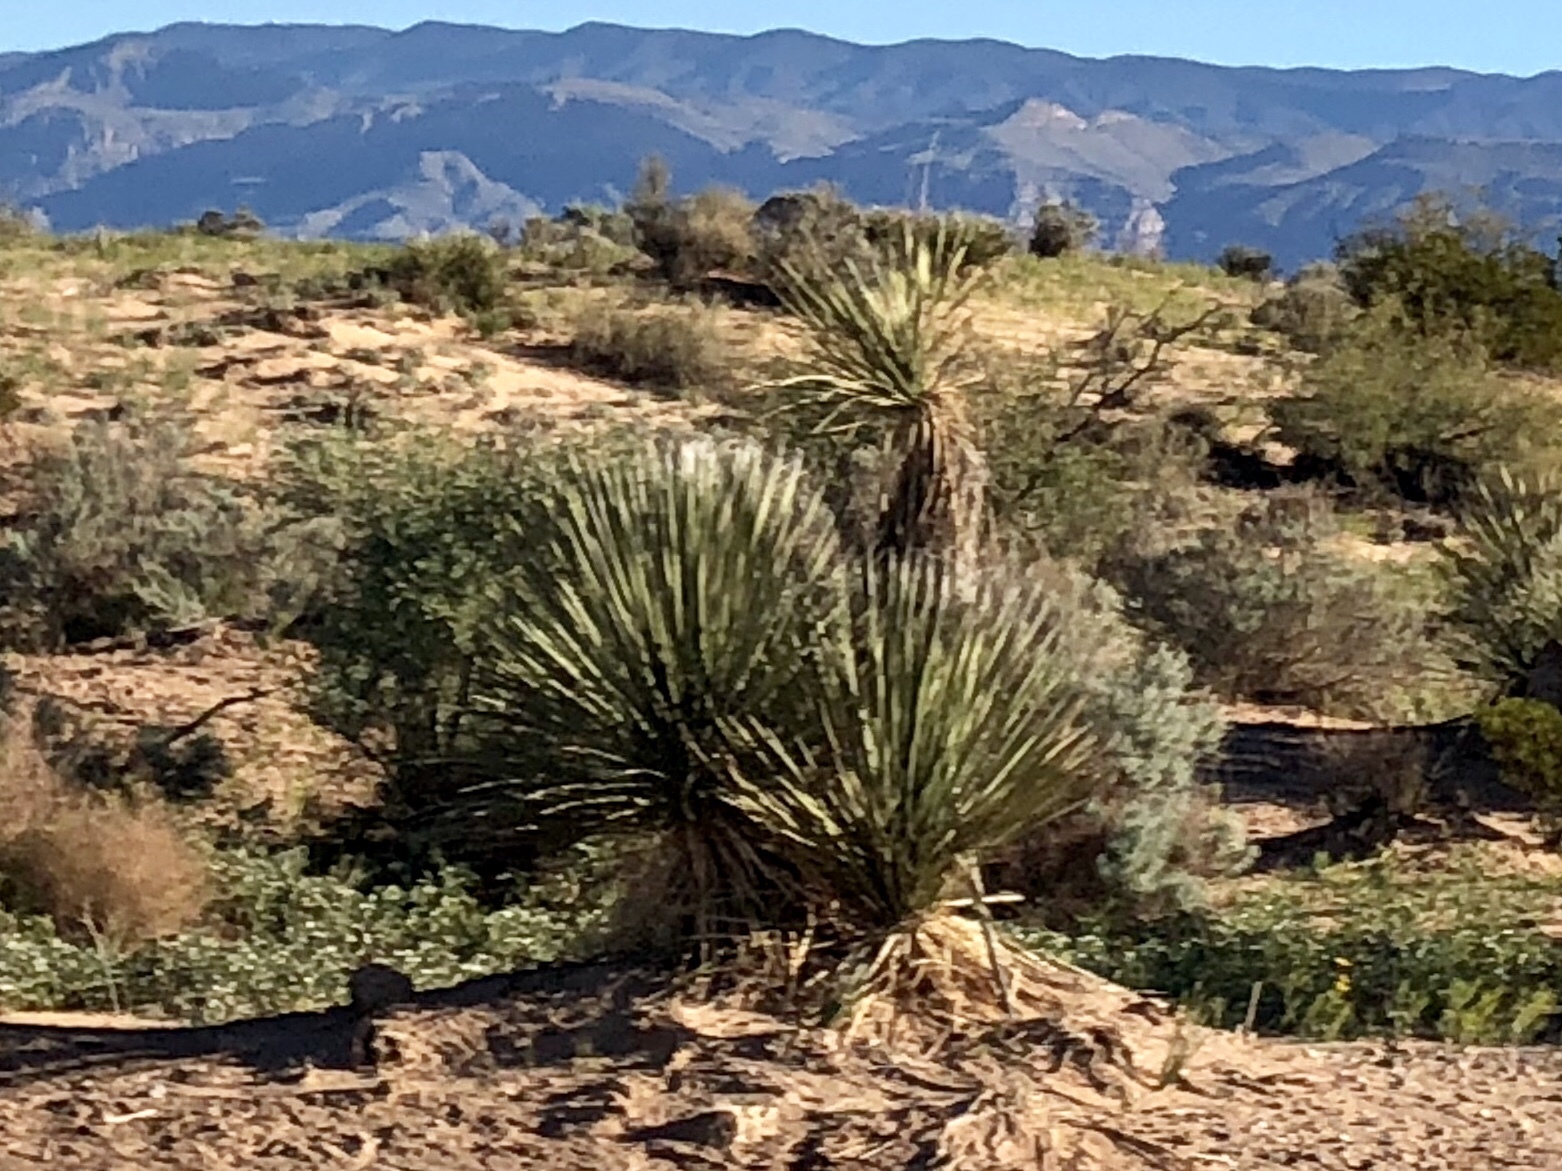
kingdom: Plantae
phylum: Tracheophyta
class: Liliopsida
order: Asparagales
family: Asparagaceae
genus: Yucca
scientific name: Yucca elata
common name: Palmella
